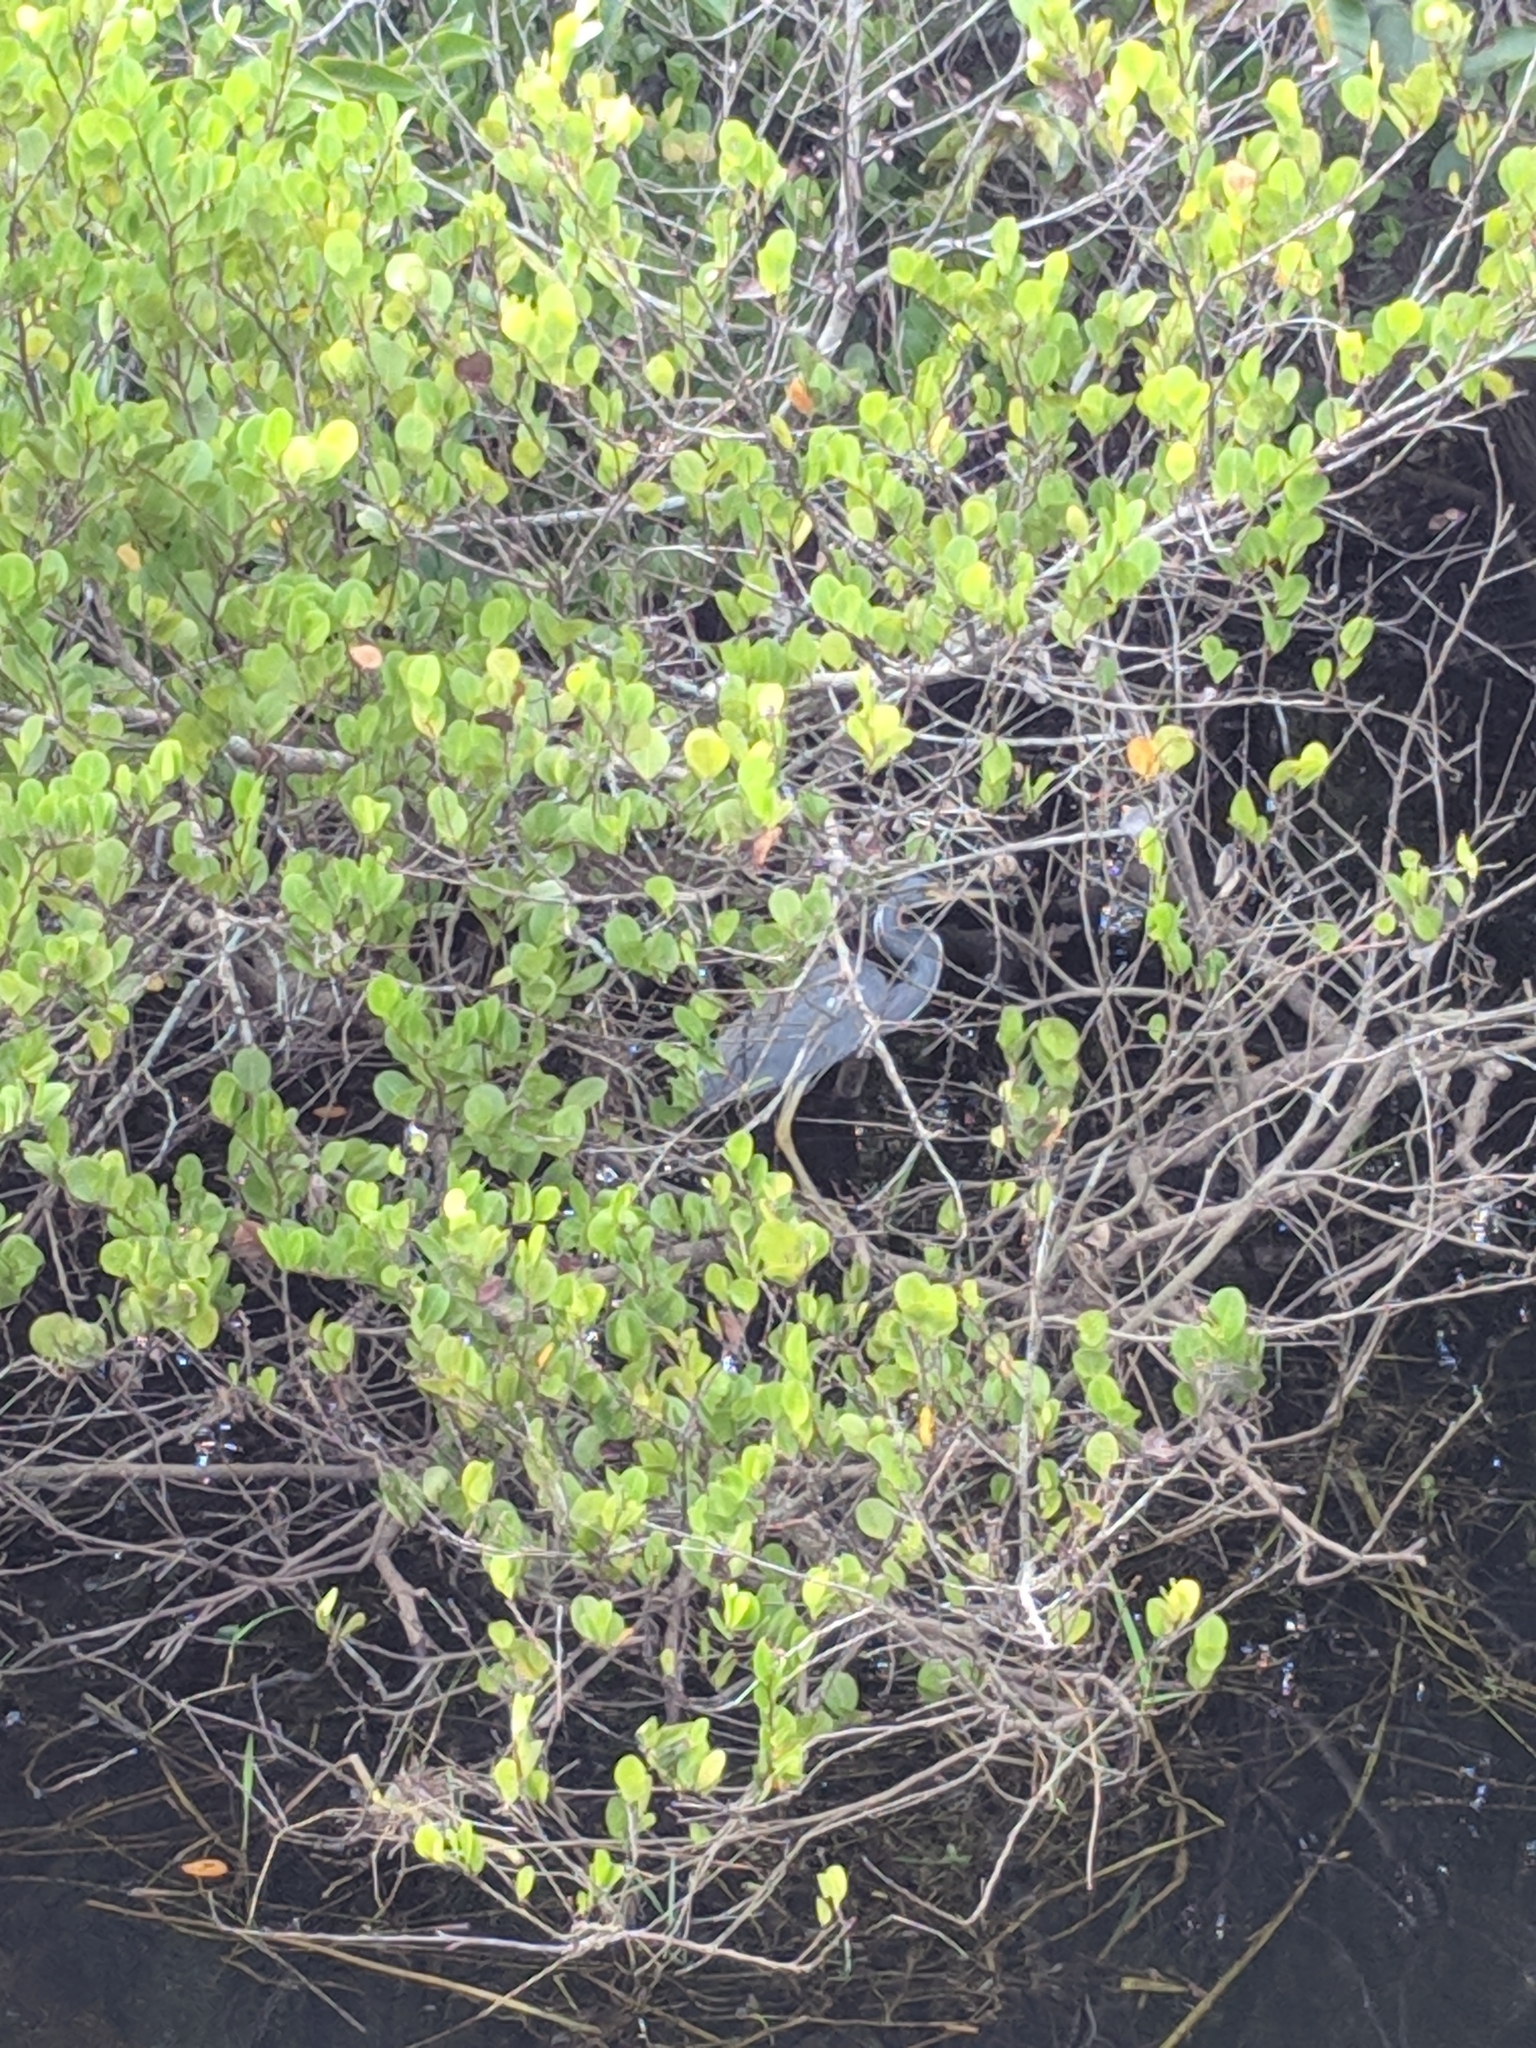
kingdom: Animalia
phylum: Chordata
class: Aves
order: Pelecaniformes
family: Ardeidae
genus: Egretta
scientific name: Egretta tricolor
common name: Tricolored heron
